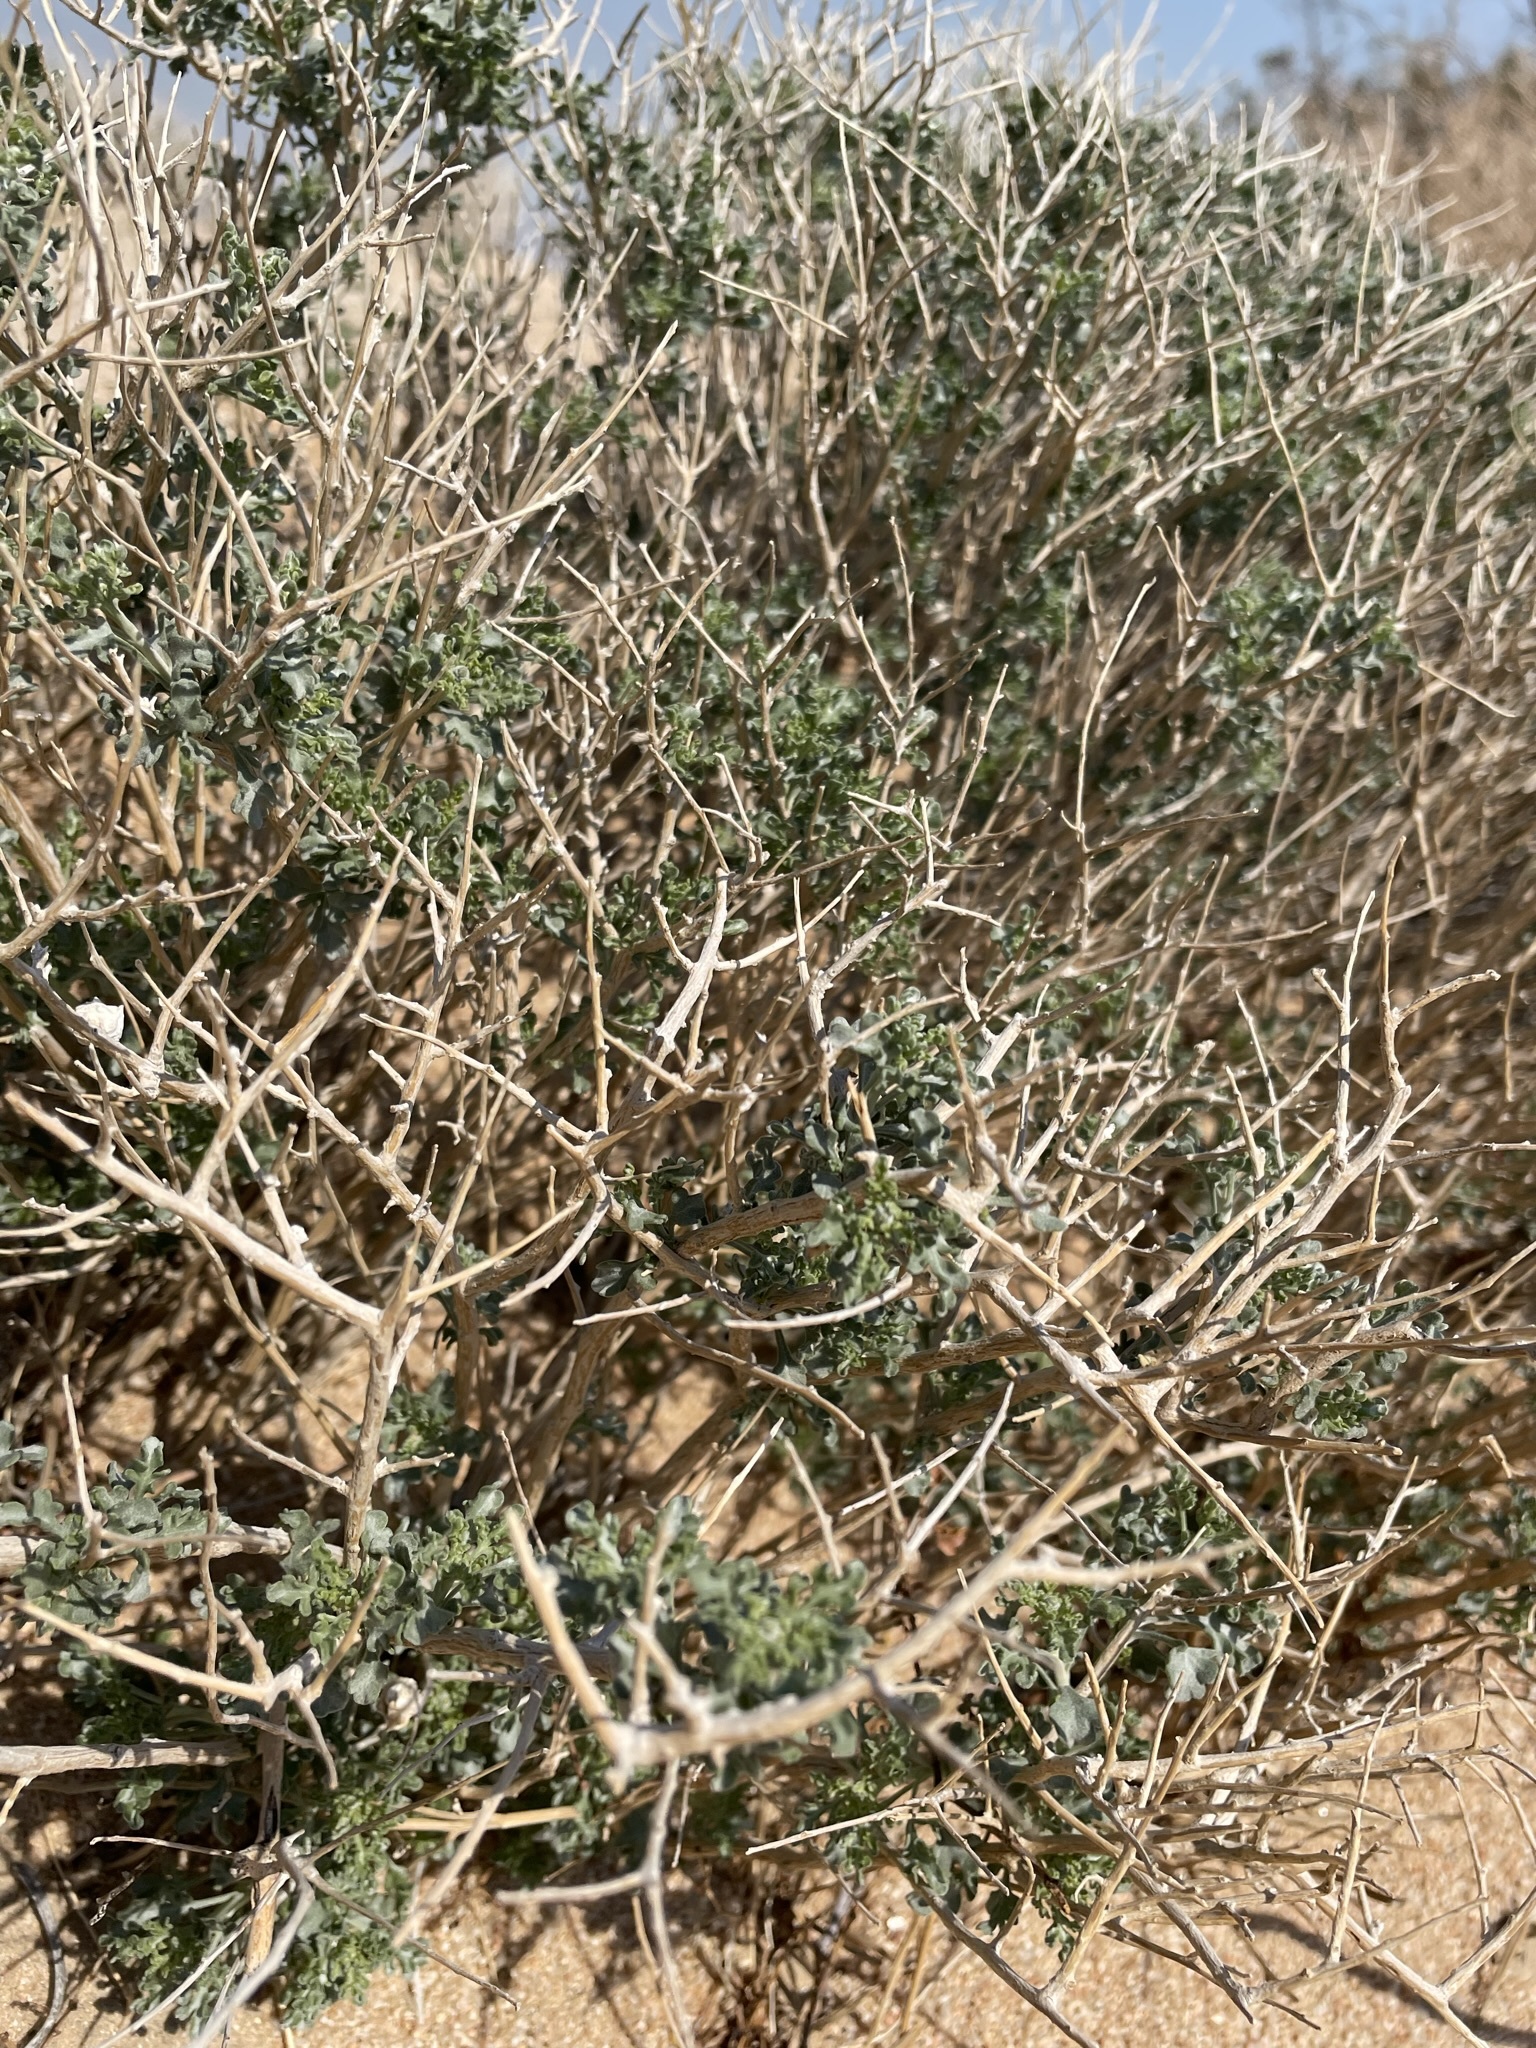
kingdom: Plantae
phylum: Tracheophyta
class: Magnoliopsida
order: Asterales
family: Asteraceae
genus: Ambrosia
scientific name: Ambrosia dumosa
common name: Bur-sage
